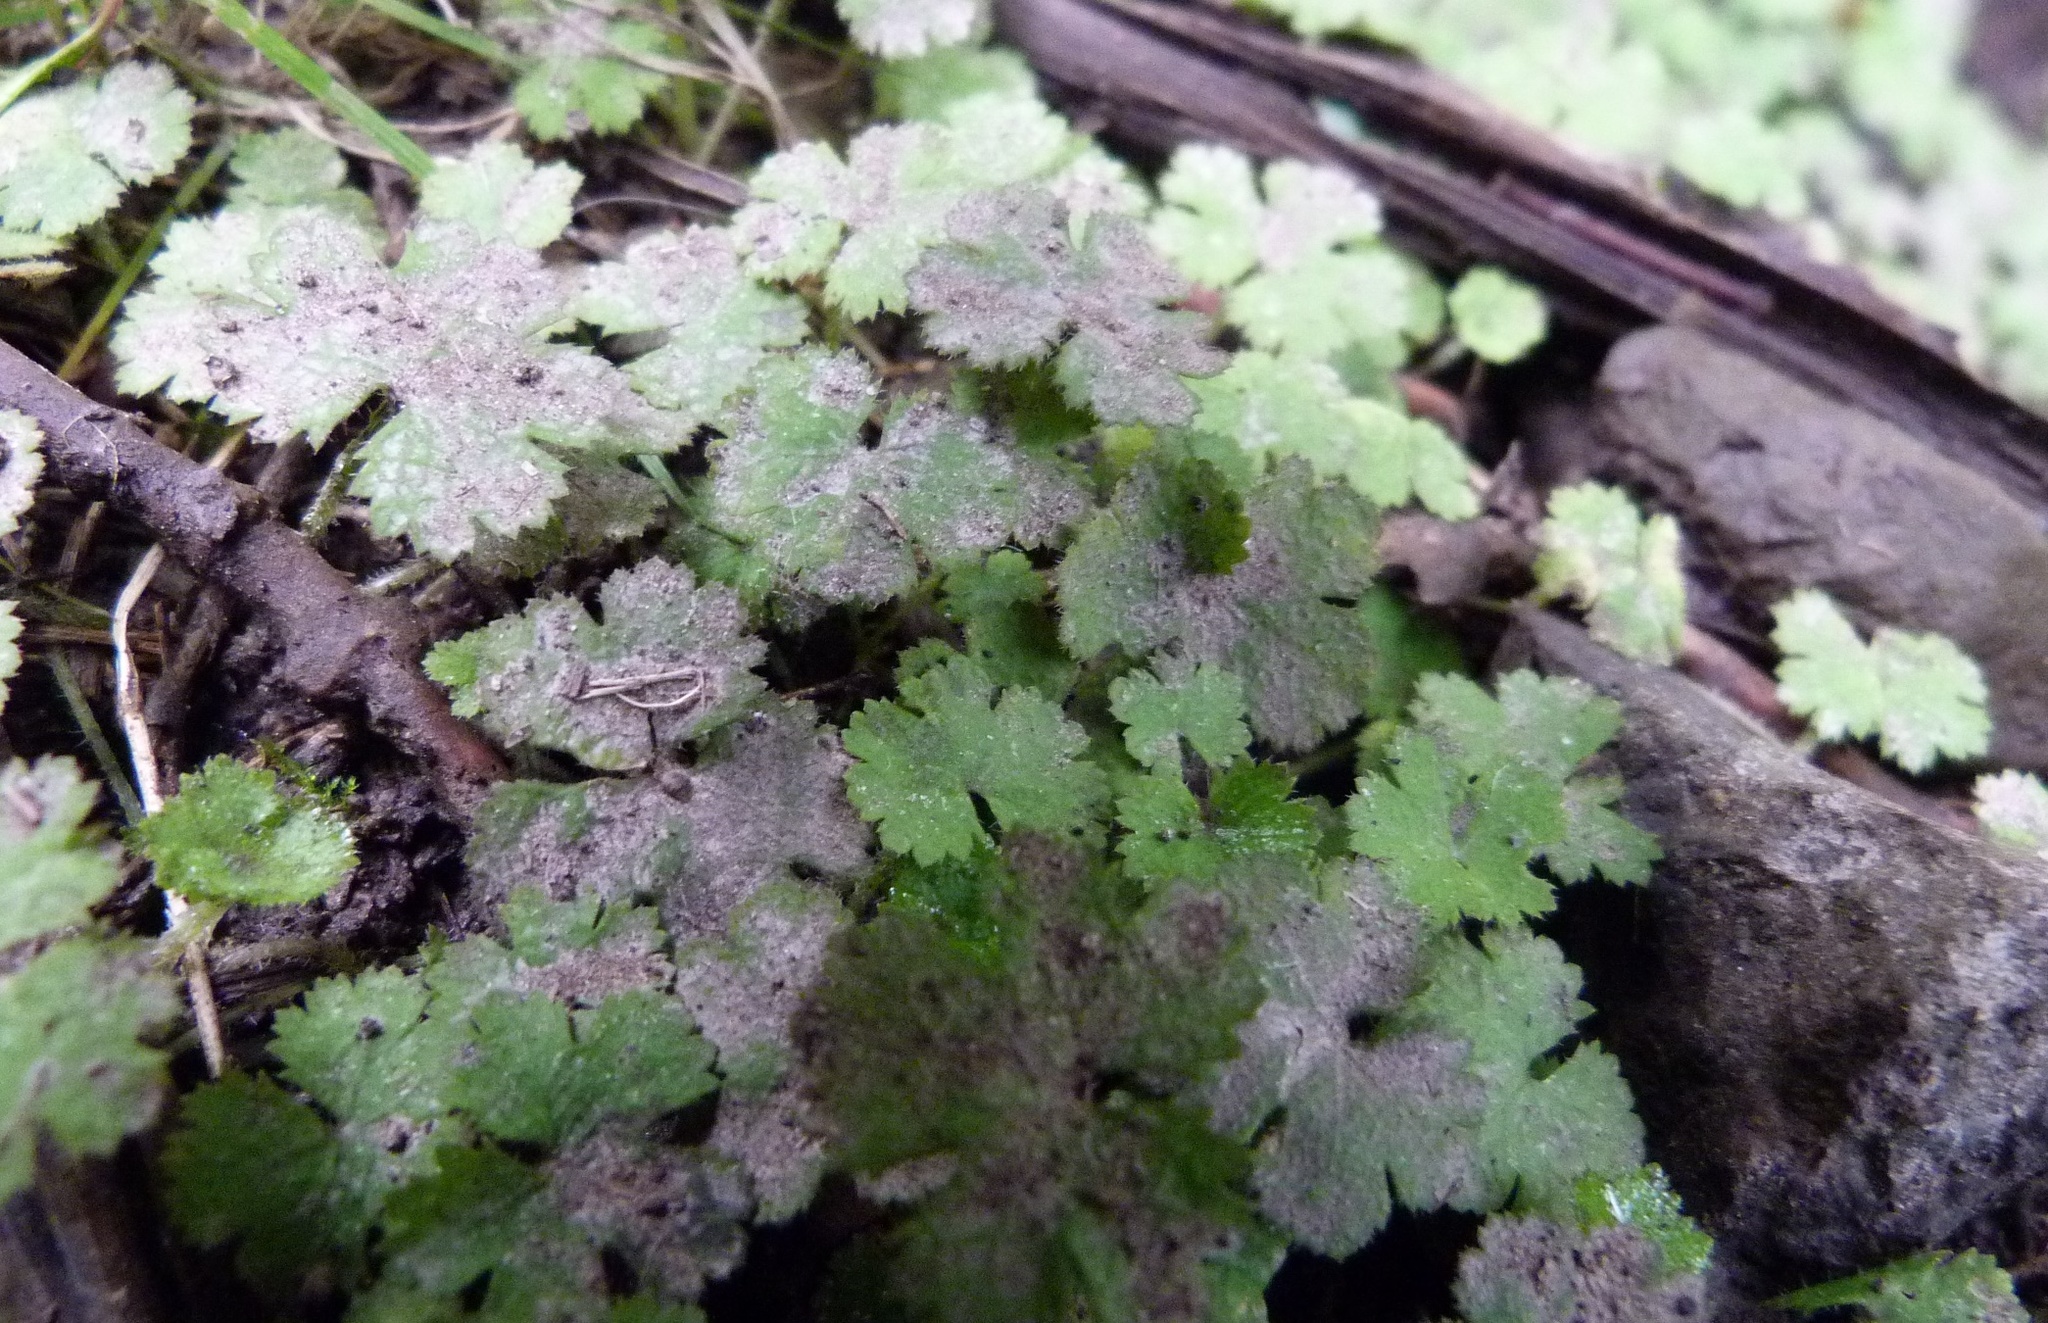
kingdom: Plantae
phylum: Tracheophyta
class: Magnoliopsida
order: Apiales
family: Araliaceae
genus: Hydrocotyle
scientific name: Hydrocotyle elongata
